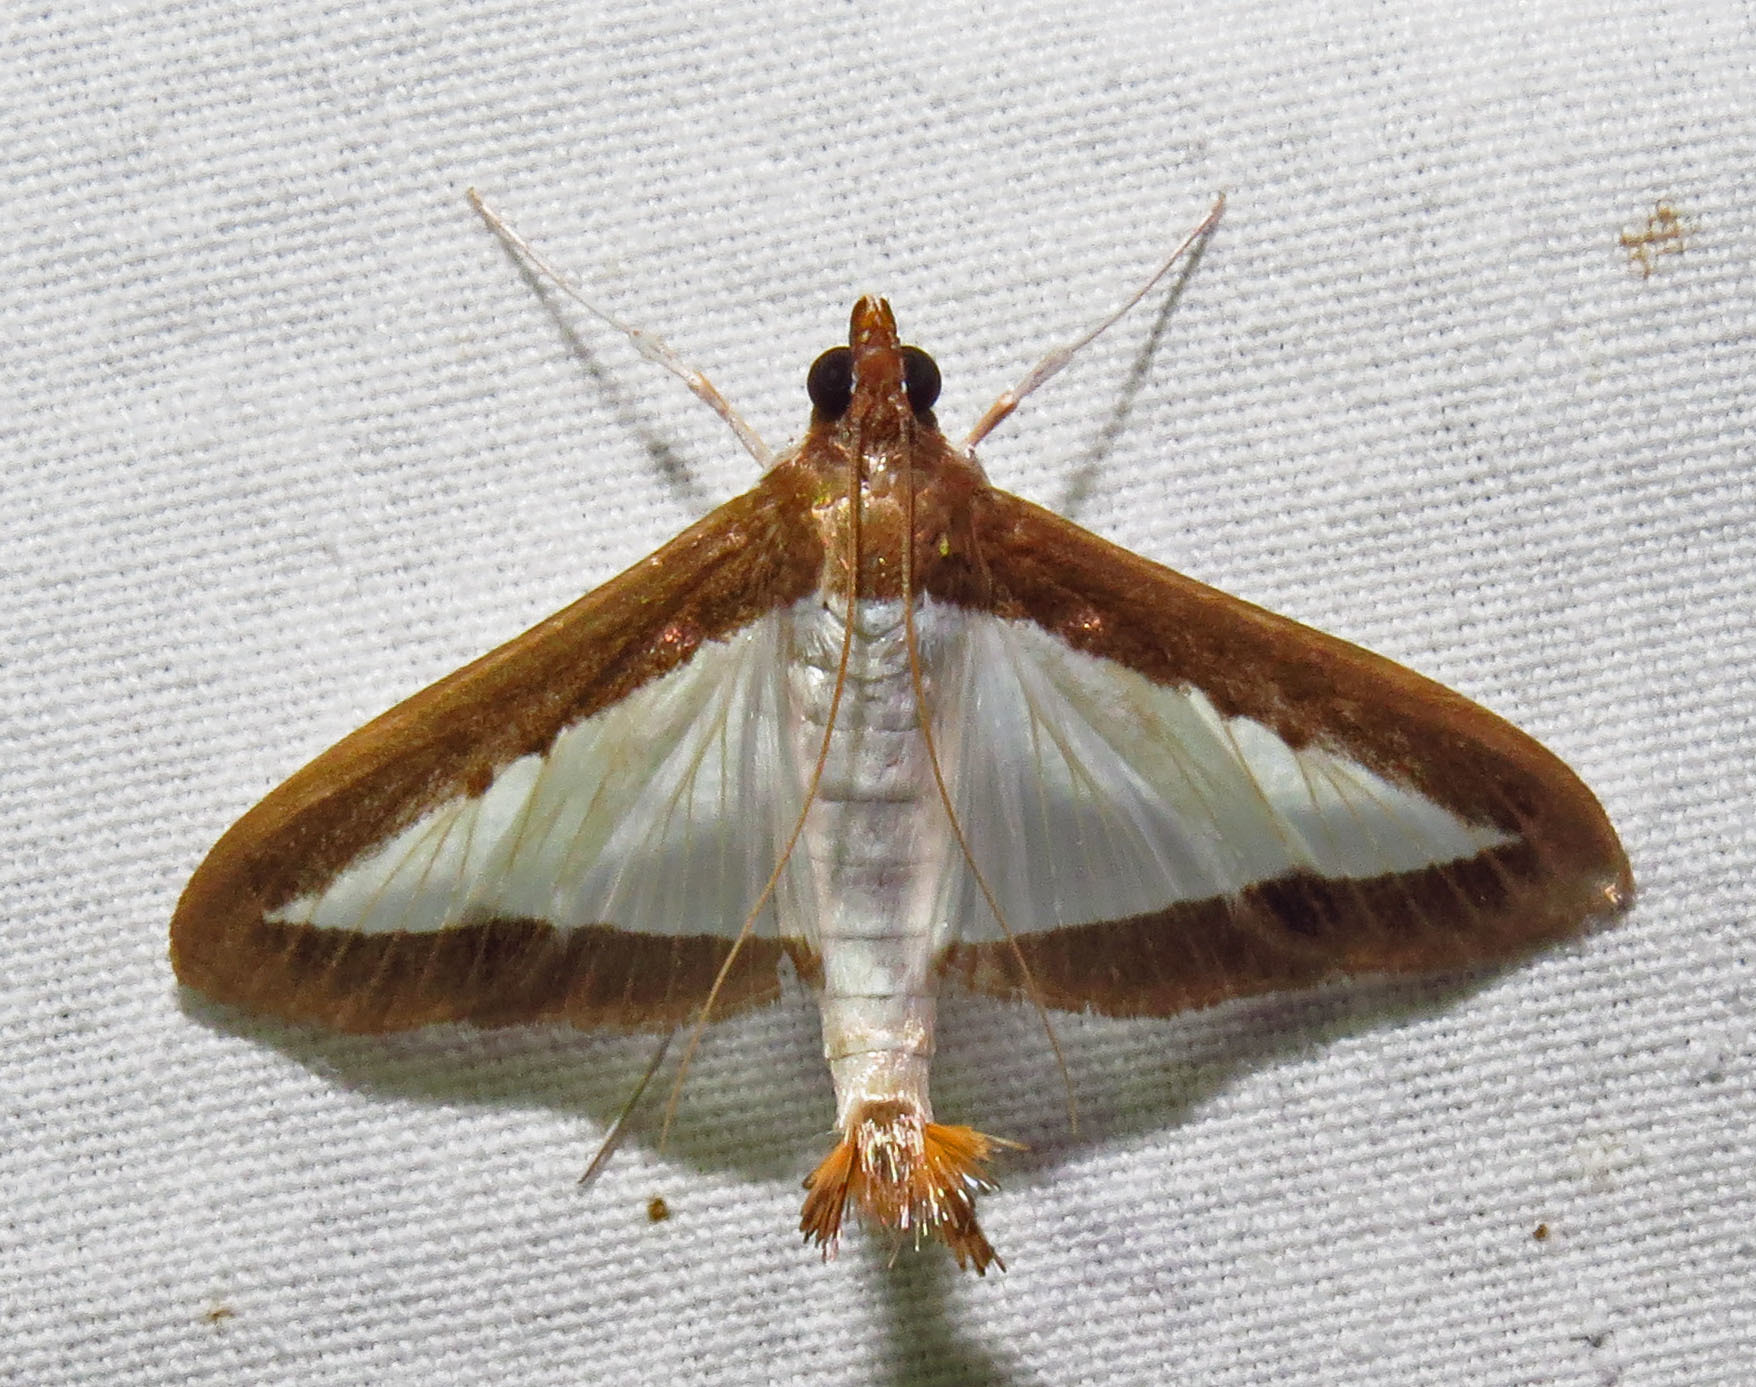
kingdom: Animalia
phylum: Arthropoda
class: Insecta
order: Lepidoptera
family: Crambidae
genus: Diaphania
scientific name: Diaphania hyalinata
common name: Melonworm
